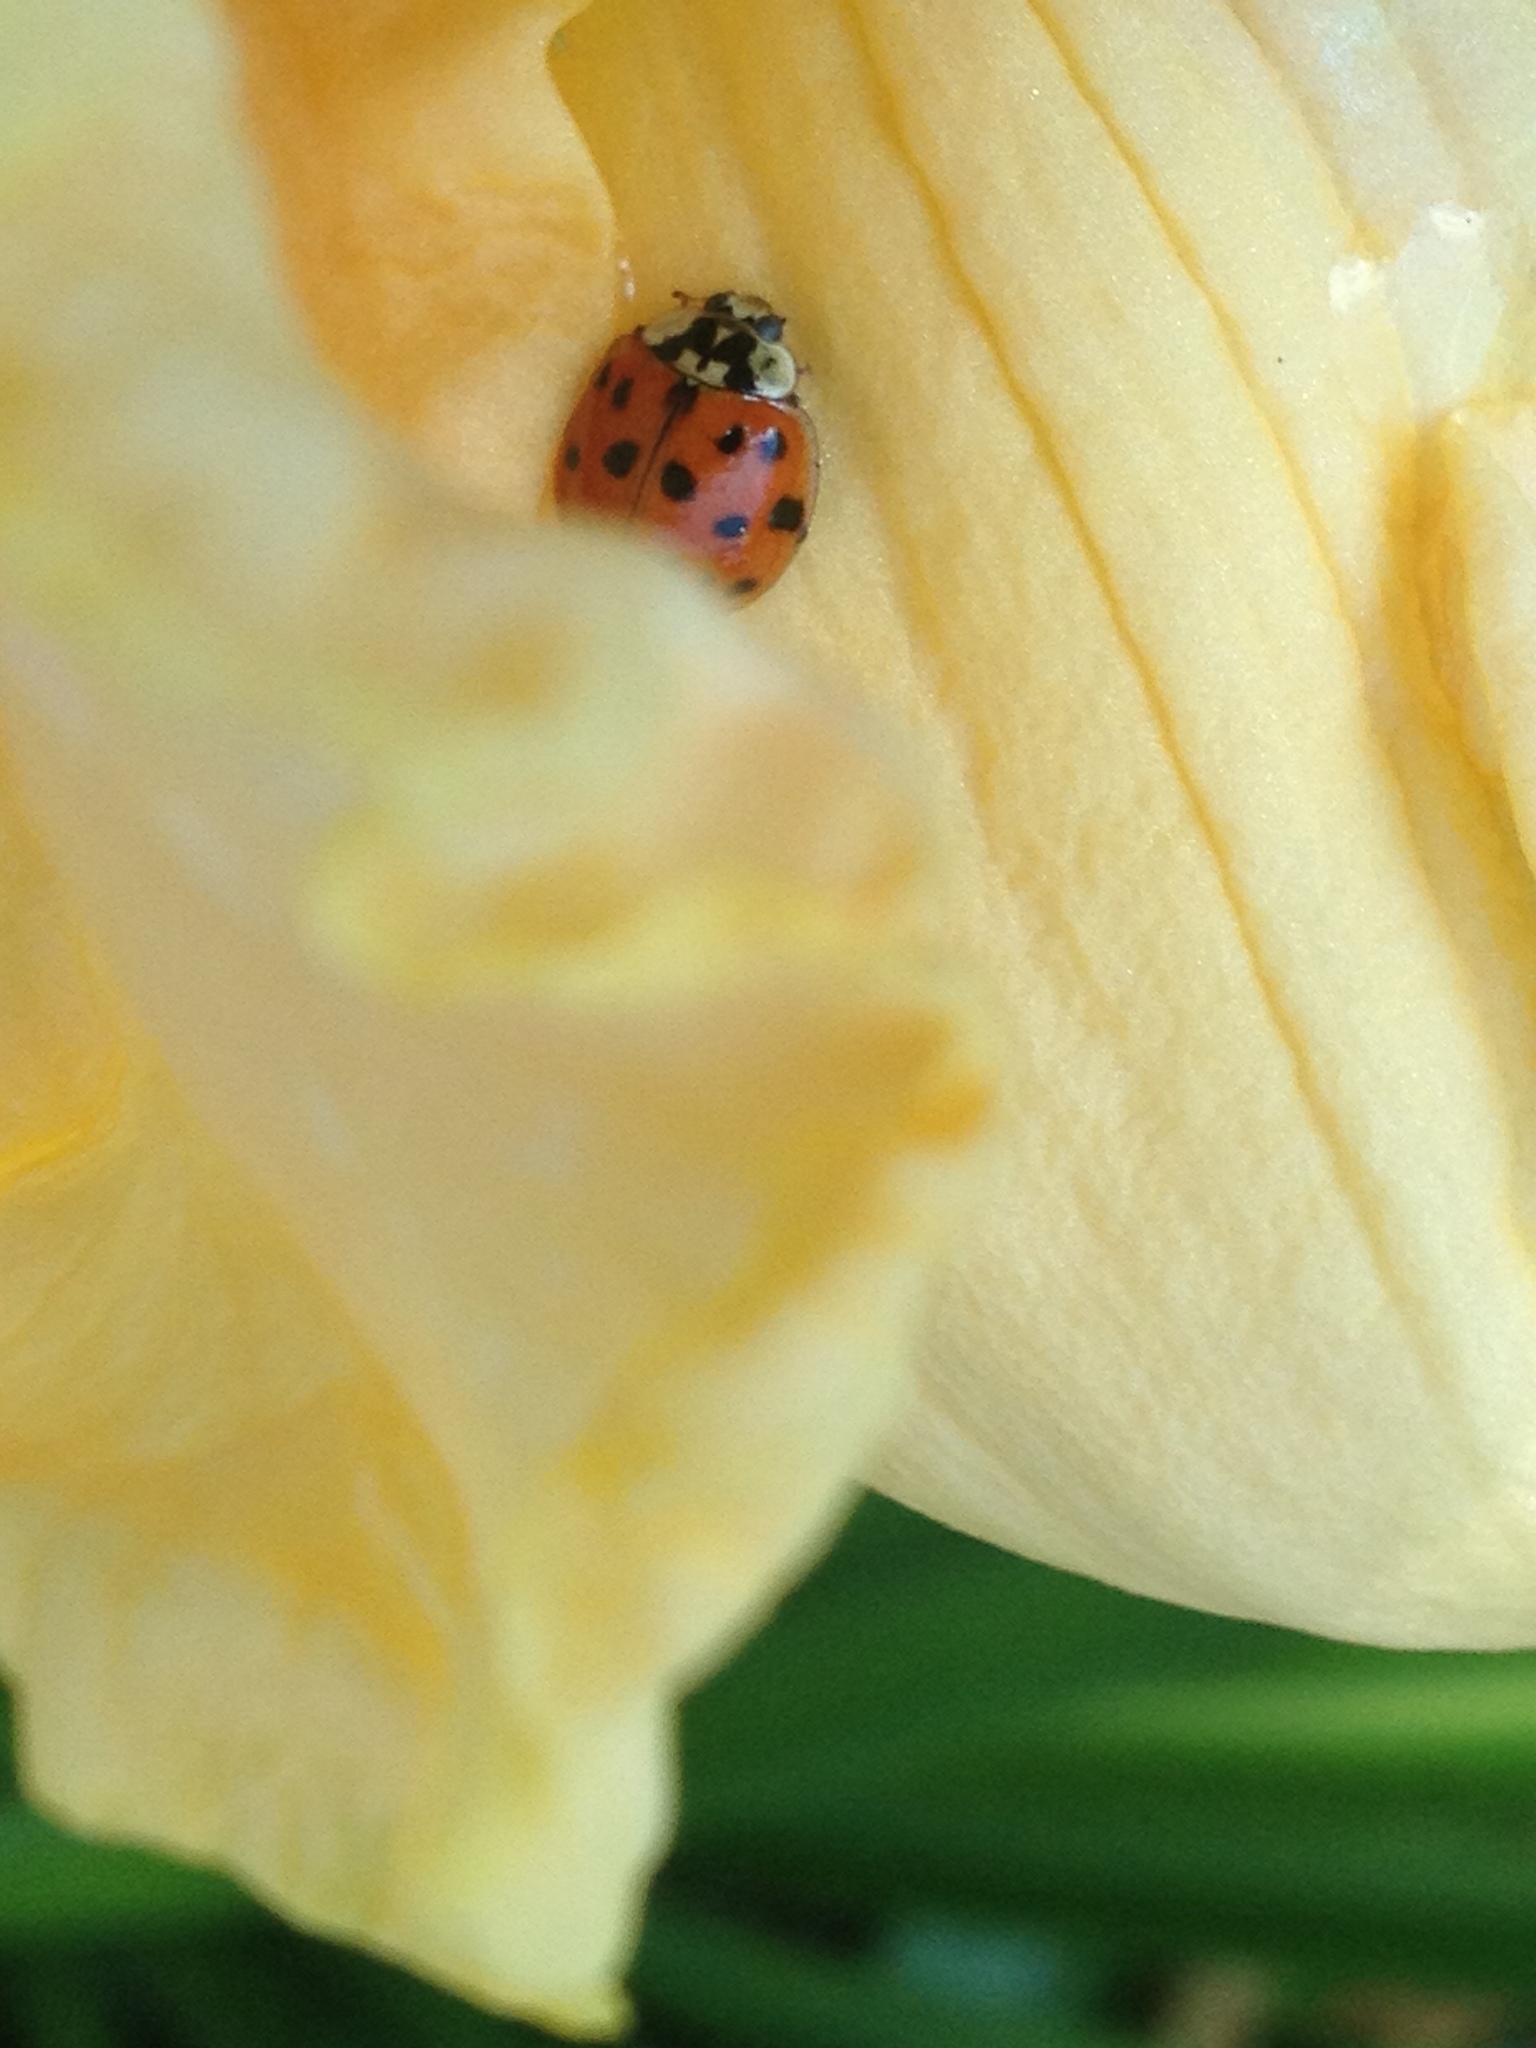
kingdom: Animalia
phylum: Arthropoda
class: Insecta
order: Coleoptera
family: Coccinellidae
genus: Harmonia
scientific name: Harmonia axyridis
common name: Harlequin ladybird
